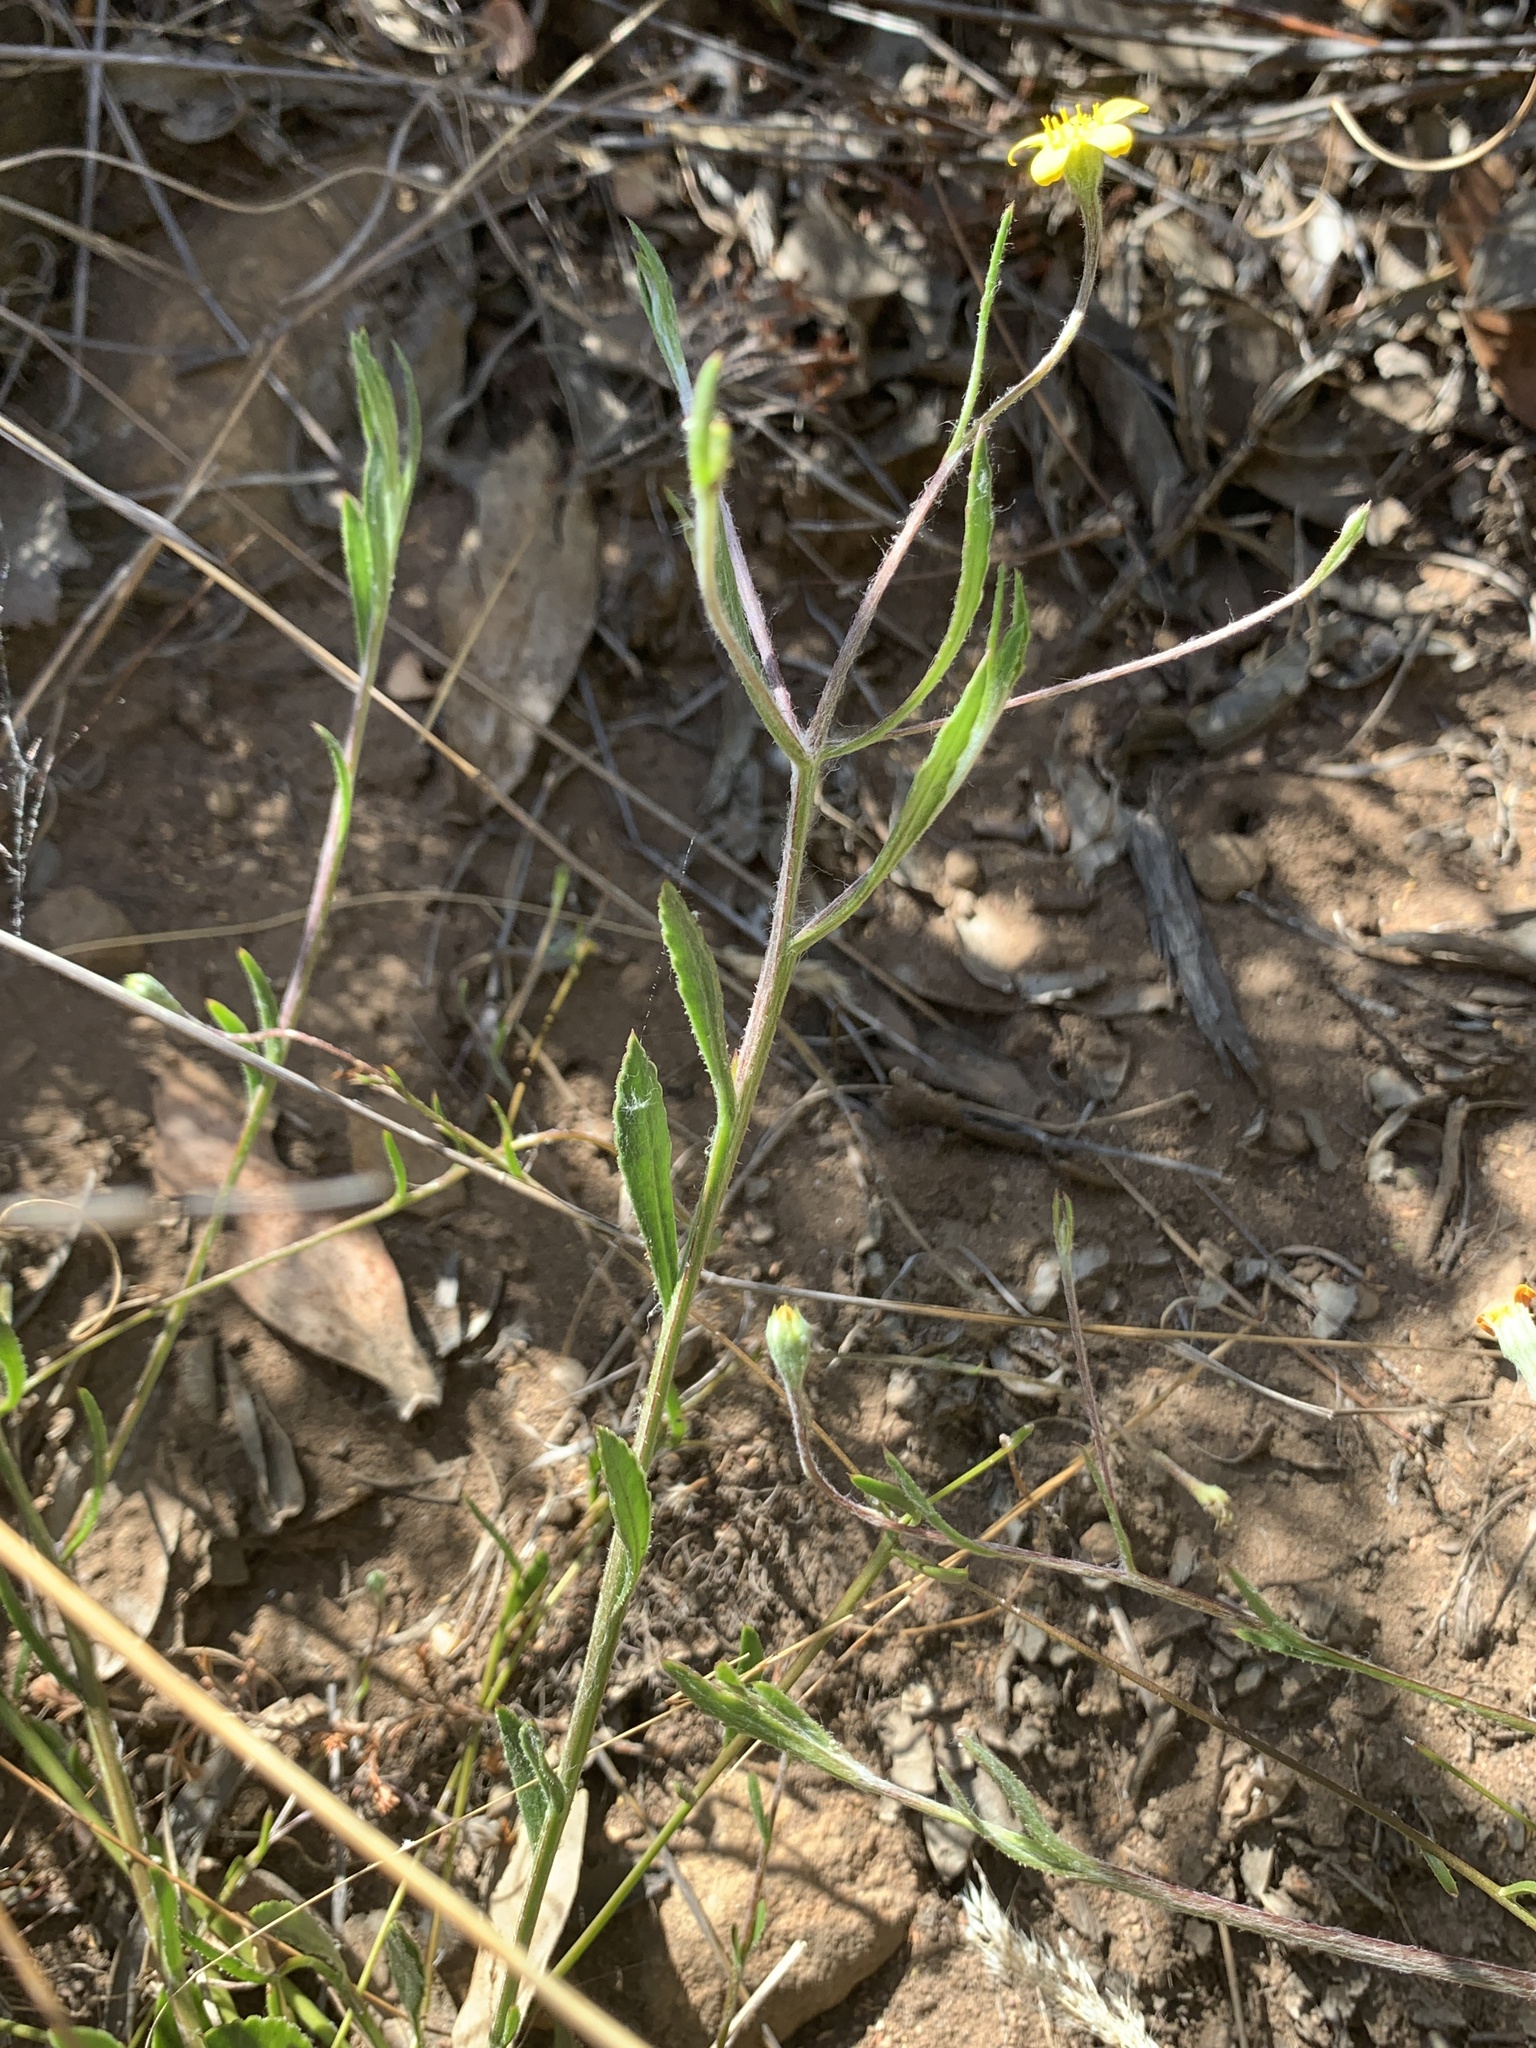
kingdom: Plantae
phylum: Tracheophyta
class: Magnoliopsida
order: Asterales
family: Asteraceae
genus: Osteospermum
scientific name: Osteospermum ciliatum
